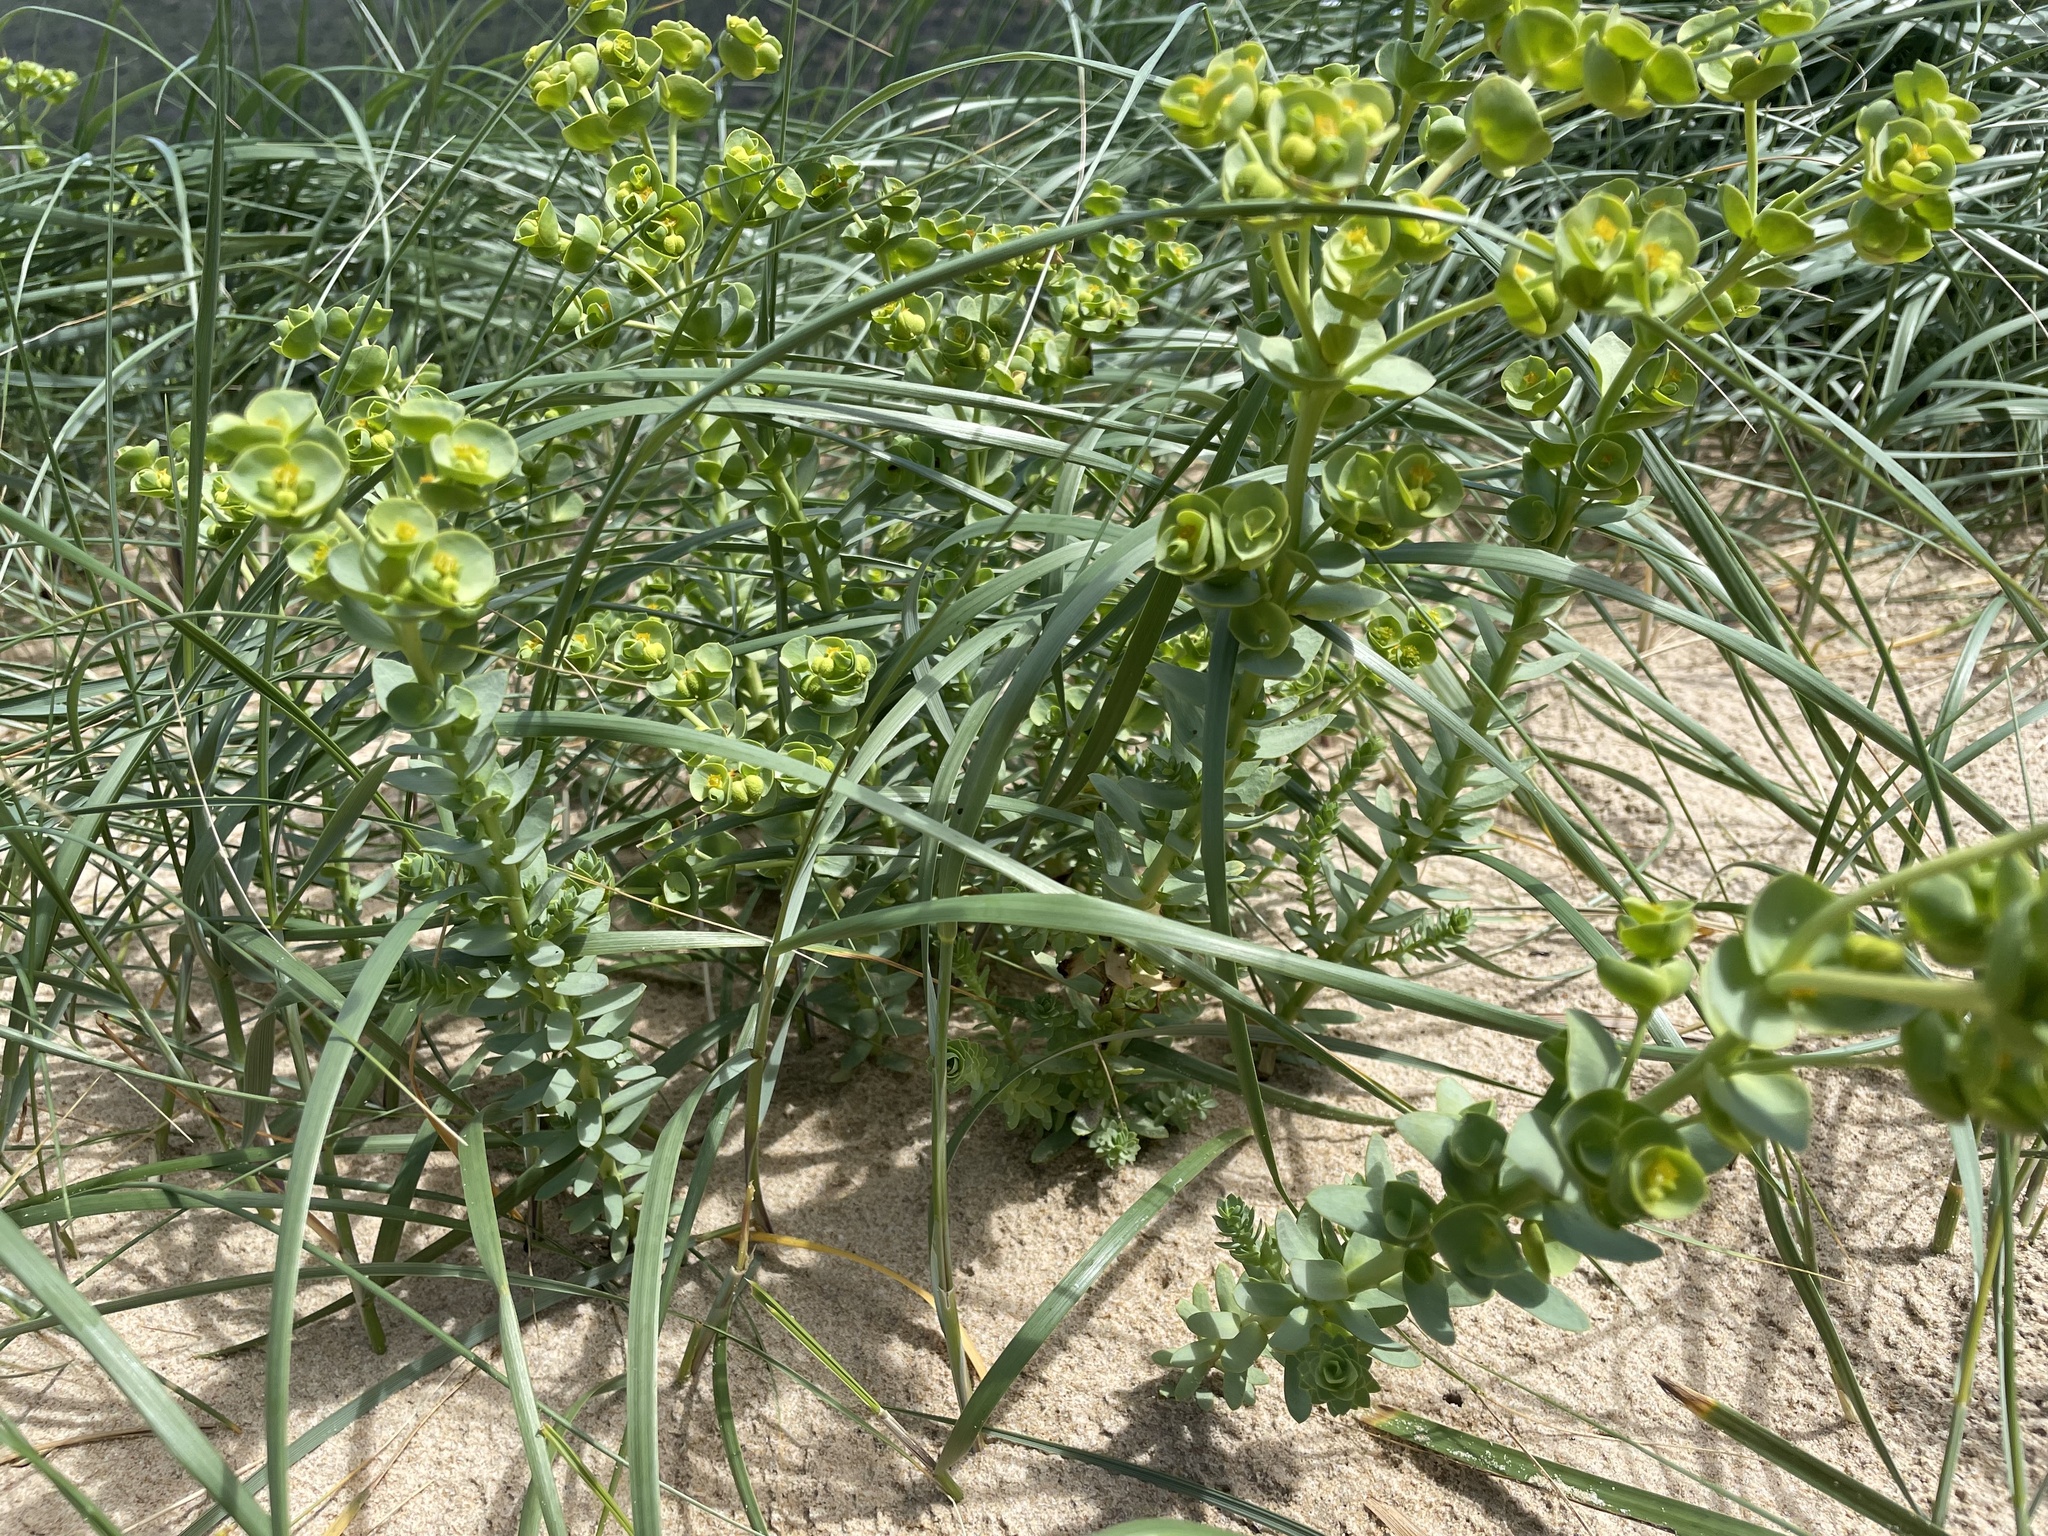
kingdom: Plantae
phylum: Tracheophyta
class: Magnoliopsida
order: Malpighiales
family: Euphorbiaceae
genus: Euphorbia
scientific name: Euphorbia paralias
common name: Sea spurge
